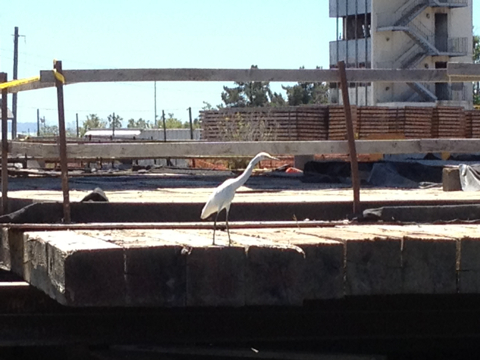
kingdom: Animalia
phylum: Chordata
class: Aves
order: Pelecaniformes
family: Ardeidae
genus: Ardea
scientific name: Ardea alba
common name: Great egret
